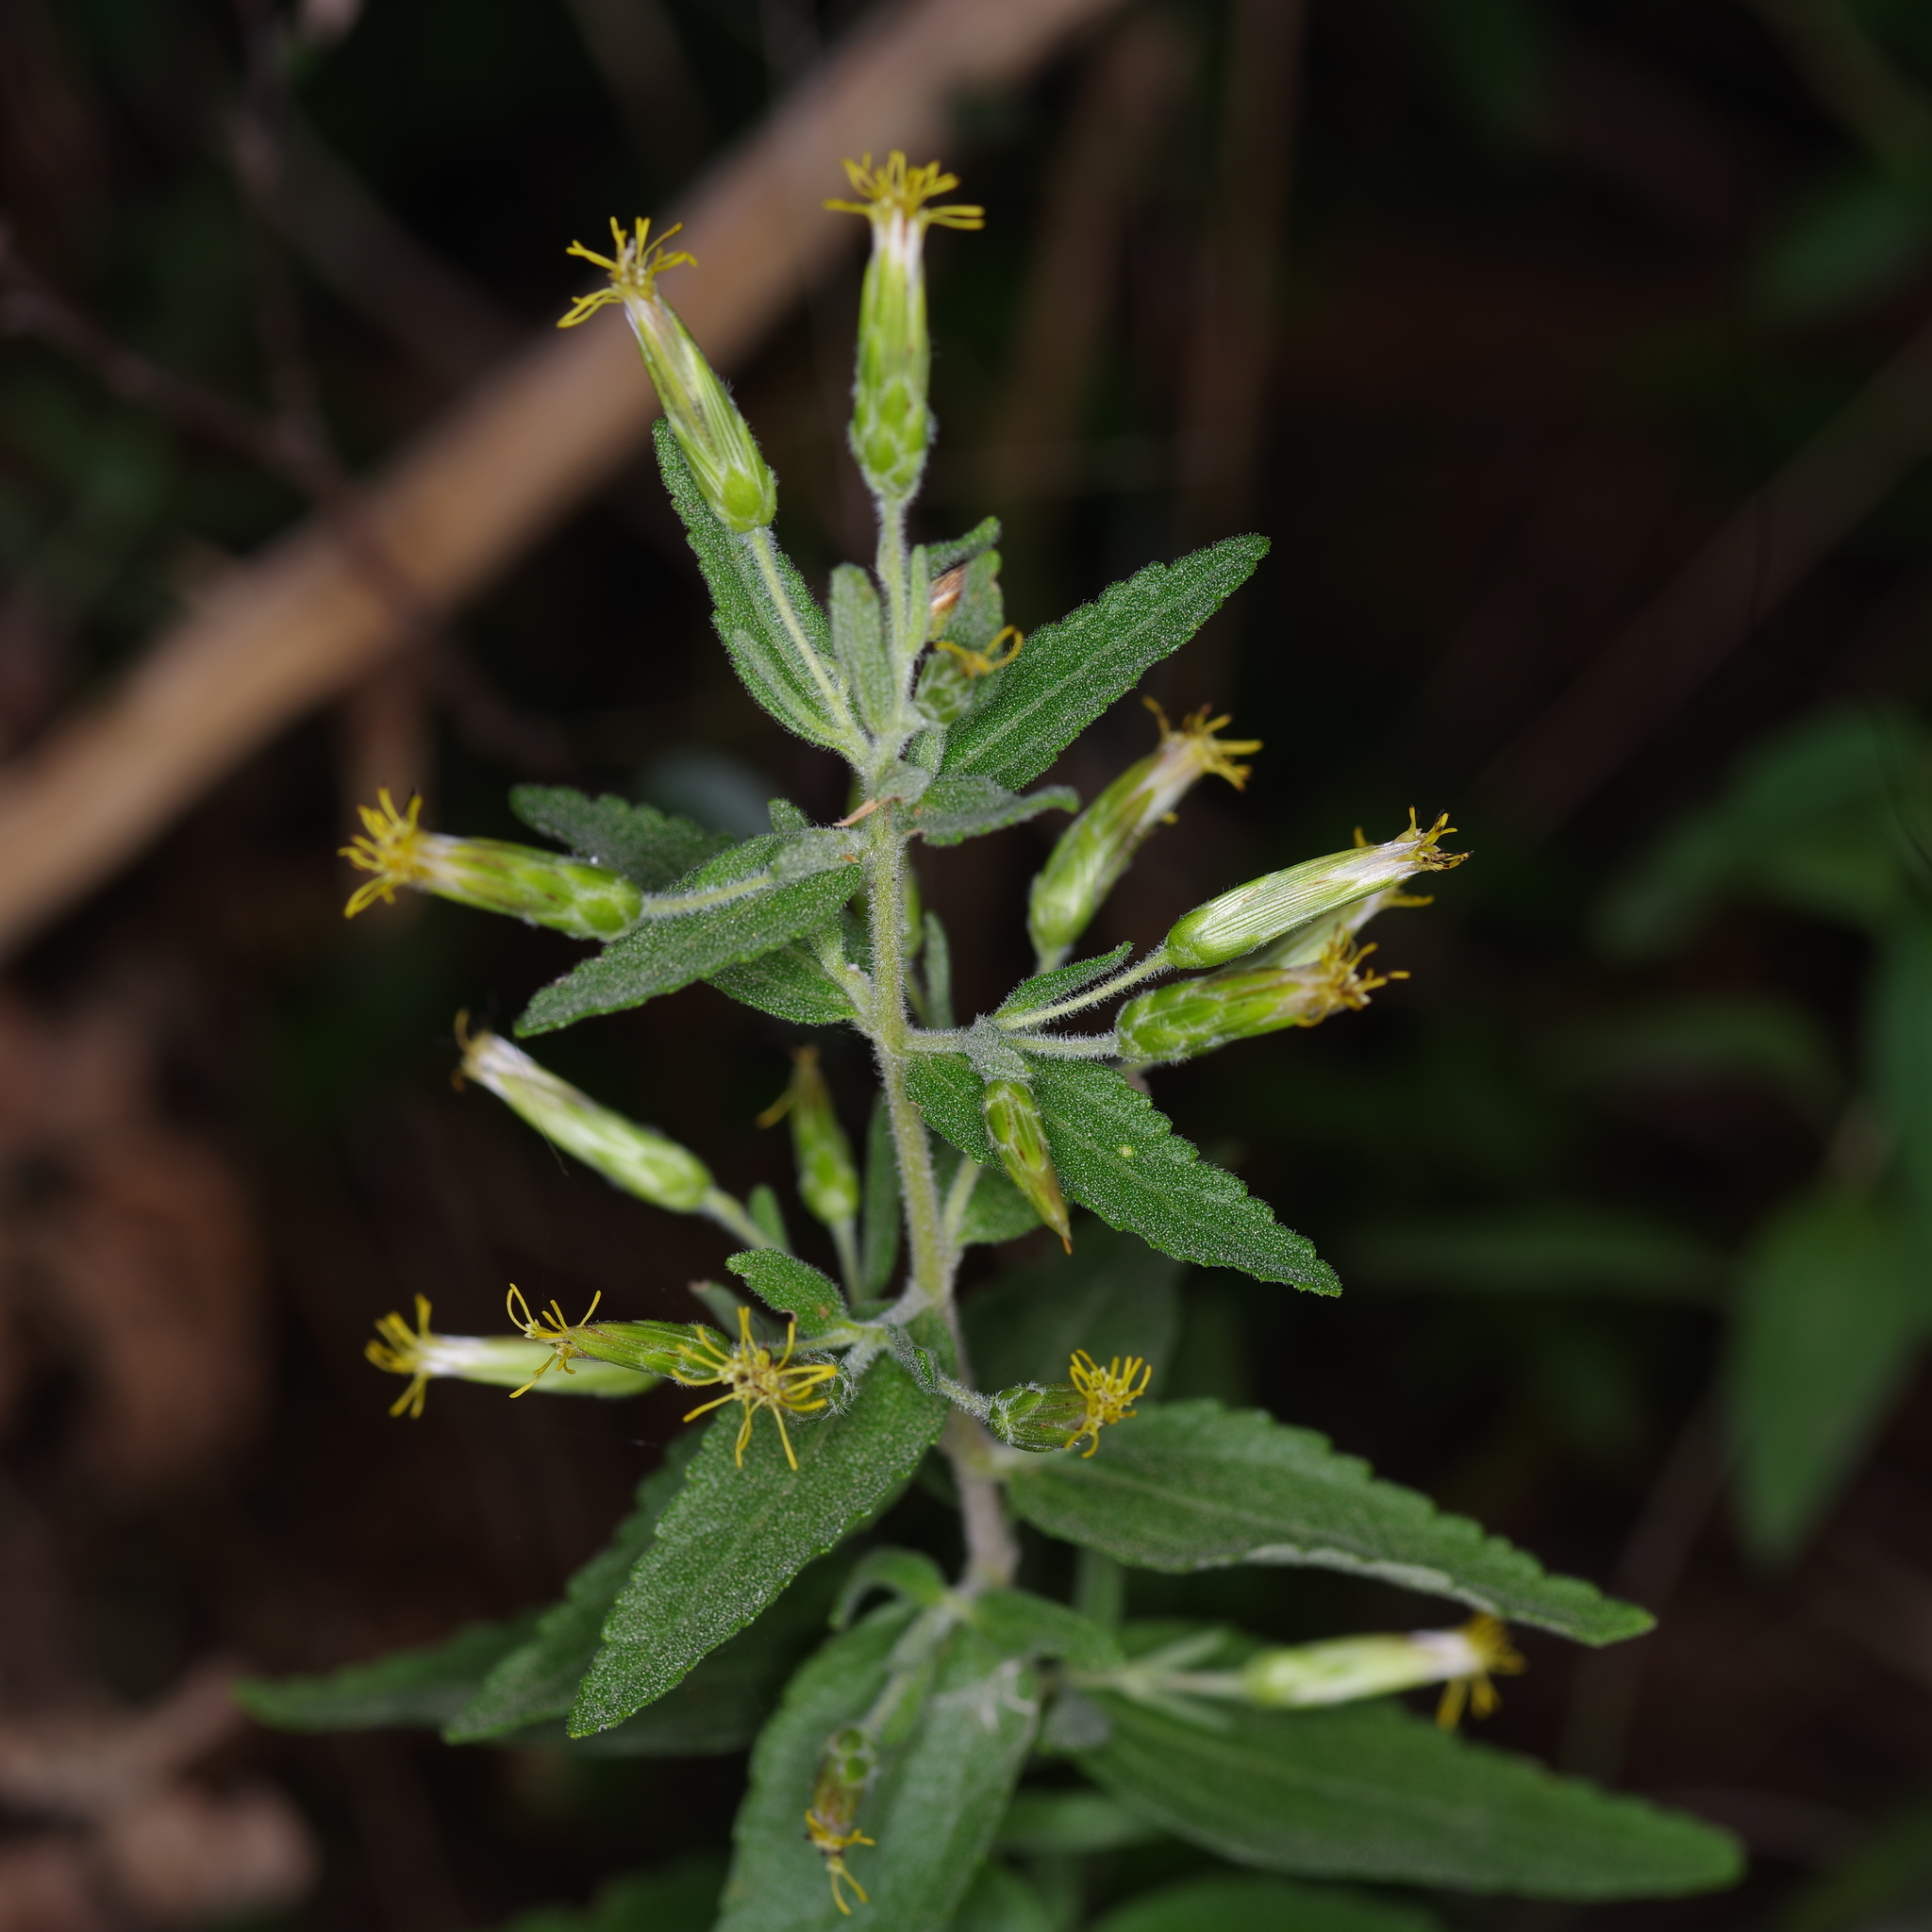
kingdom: Plantae
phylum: Tracheophyta
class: Magnoliopsida
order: Asterales
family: Asteraceae
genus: Brickellia
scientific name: Brickellia cylindracea
